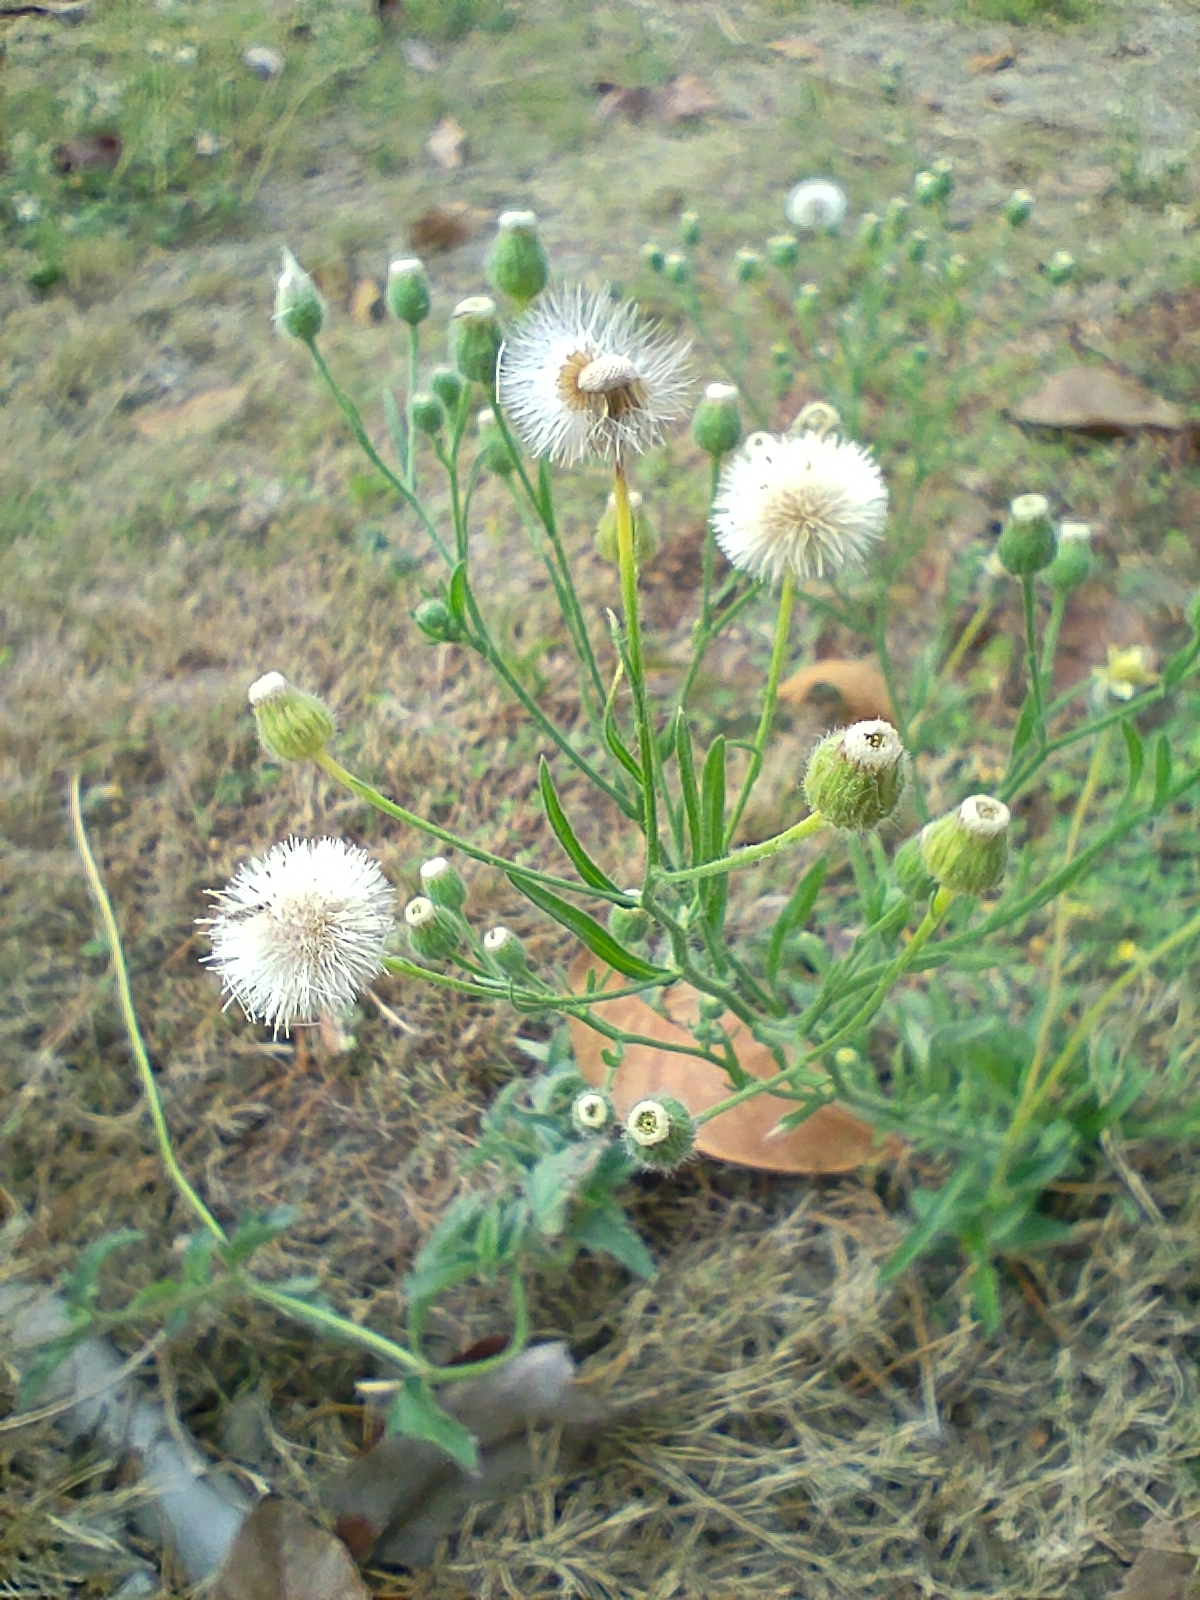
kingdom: Plantae
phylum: Tracheophyta
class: Magnoliopsida
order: Asterales
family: Asteraceae
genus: Erigeron
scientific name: Erigeron bonariensis
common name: Argentine fleabane
